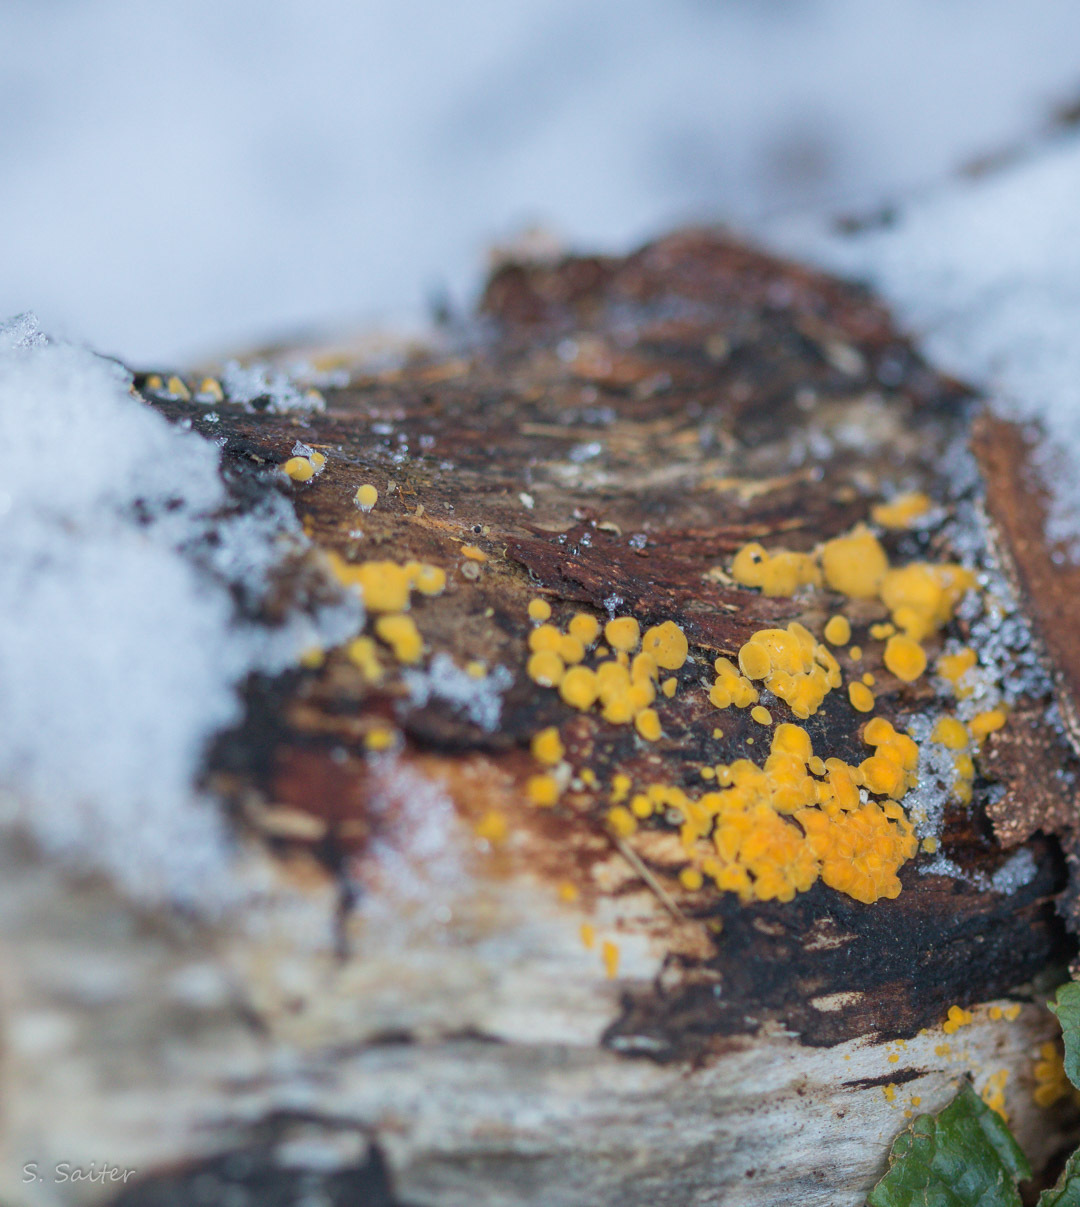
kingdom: Fungi
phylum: Ascomycota
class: Leotiomycetes
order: Helotiales
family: Pezizellaceae
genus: Calycina
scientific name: Calycina citrina
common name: Yellow fairy cups
